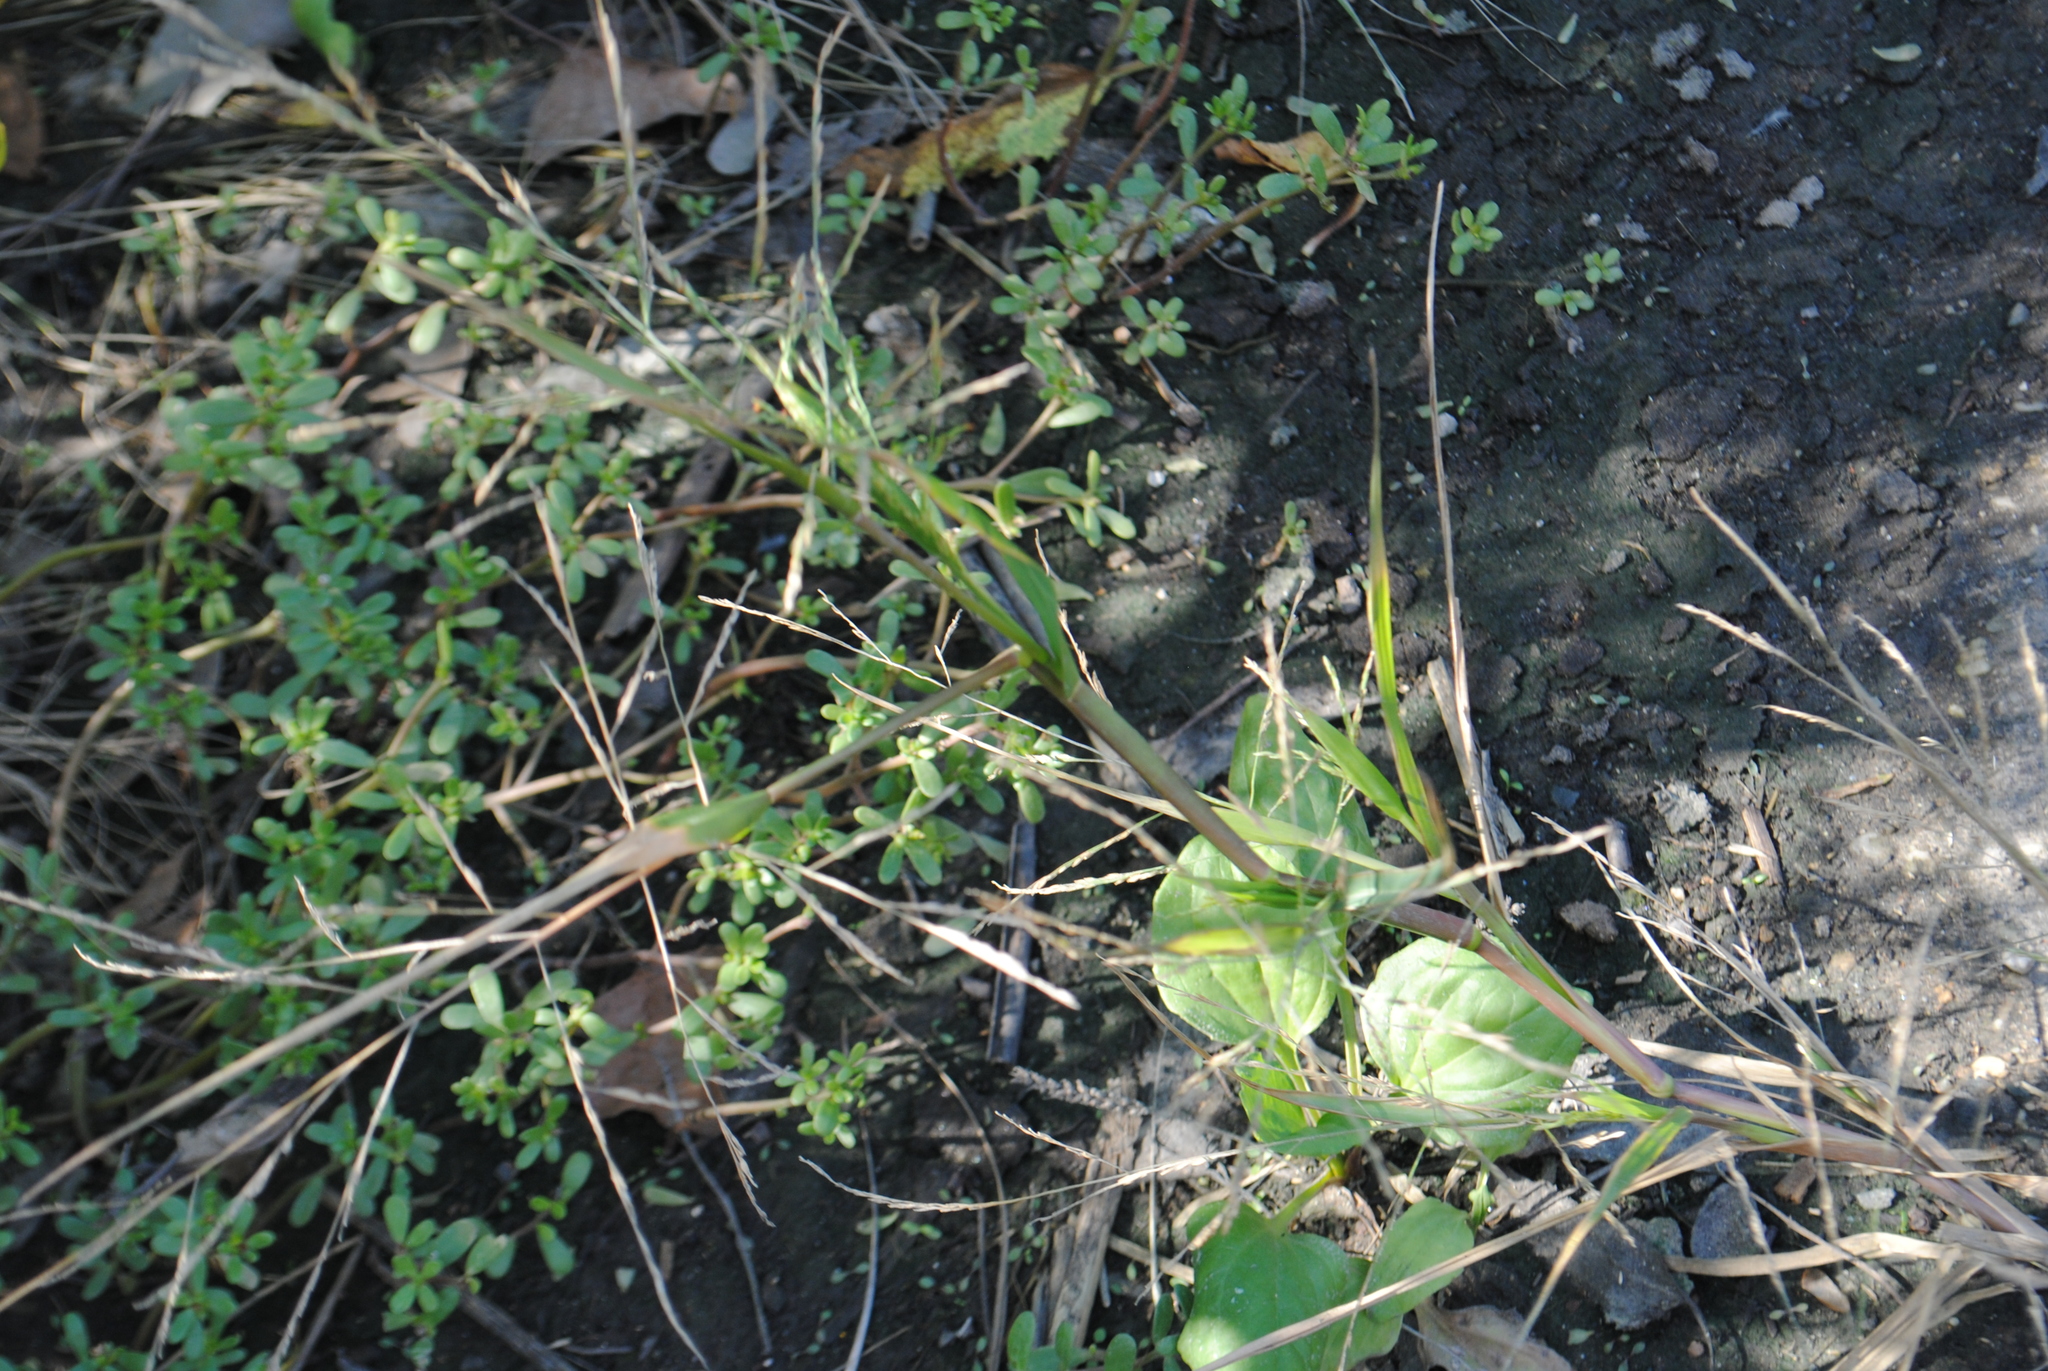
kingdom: Plantae
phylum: Tracheophyta
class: Liliopsida
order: Poales
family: Poaceae
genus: Panicum
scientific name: Panicum dichotomiflorum
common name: Autumn millet
